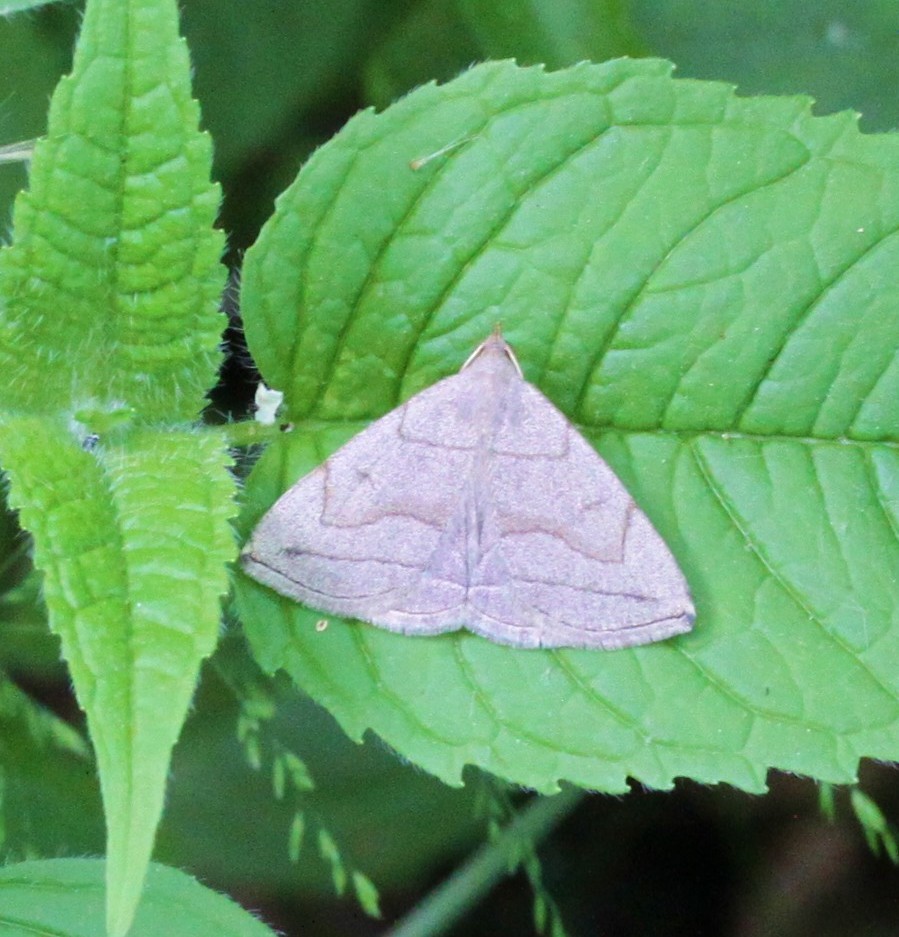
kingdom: Animalia
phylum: Arthropoda
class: Insecta
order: Lepidoptera
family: Erebidae
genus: Zanclognatha
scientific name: Zanclognatha pedipilalis
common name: Grayish fan-foot
